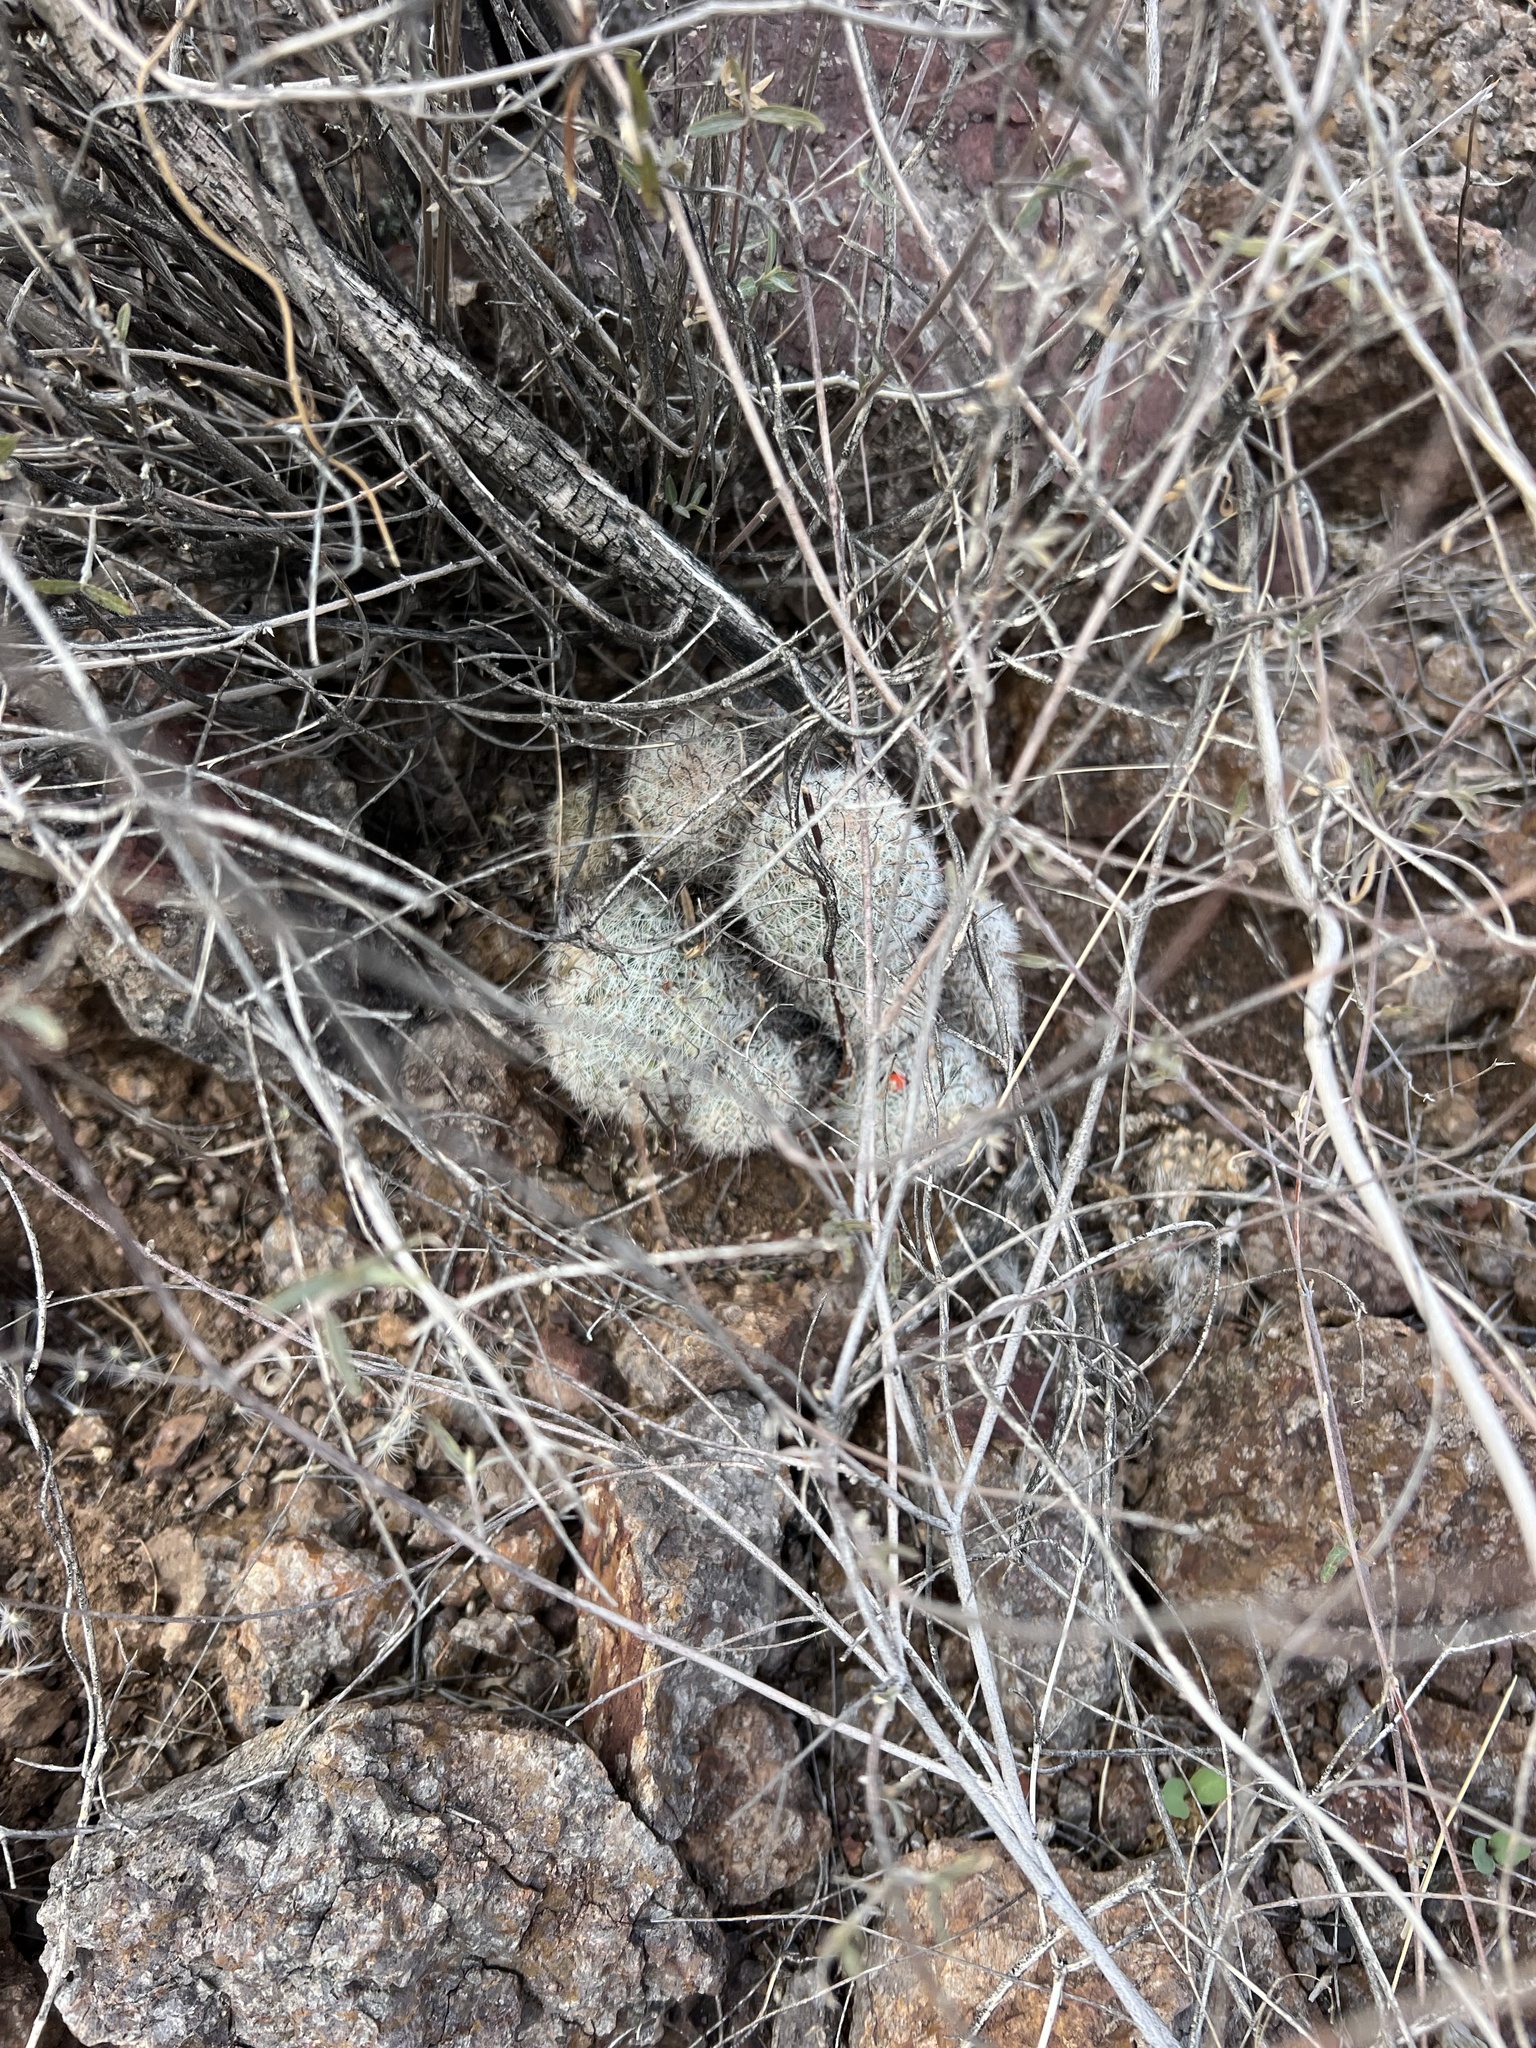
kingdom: Plantae
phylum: Tracheophyta
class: Magnoliopsida
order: Caryophyllales
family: Cactaceae
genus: Cochemiea
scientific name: Cochemiea grahamii
